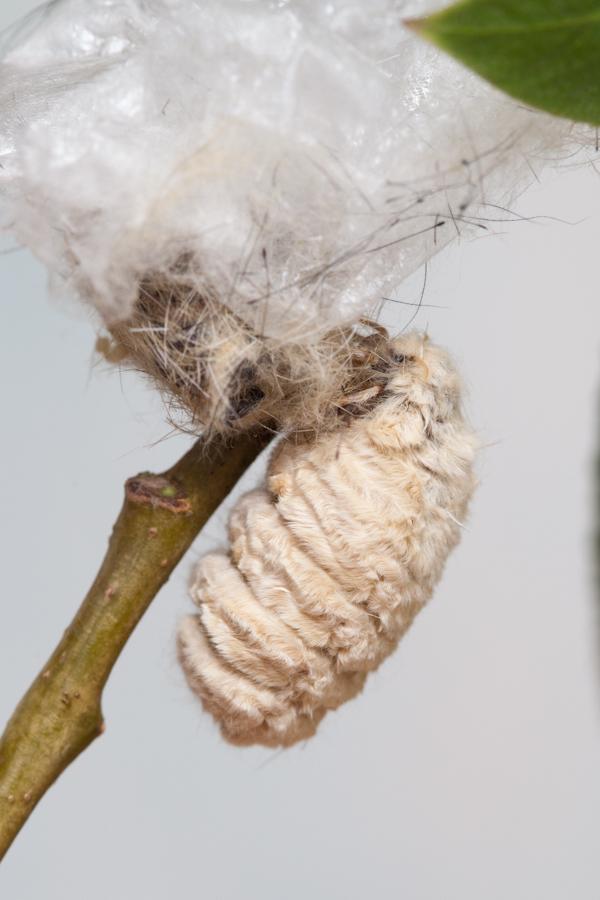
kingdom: Animalia
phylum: Arthropoda
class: Insecta
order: Lepidoptera
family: Erebidae
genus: Orgyia
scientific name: Orgyia recens
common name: Scarce vapourer
